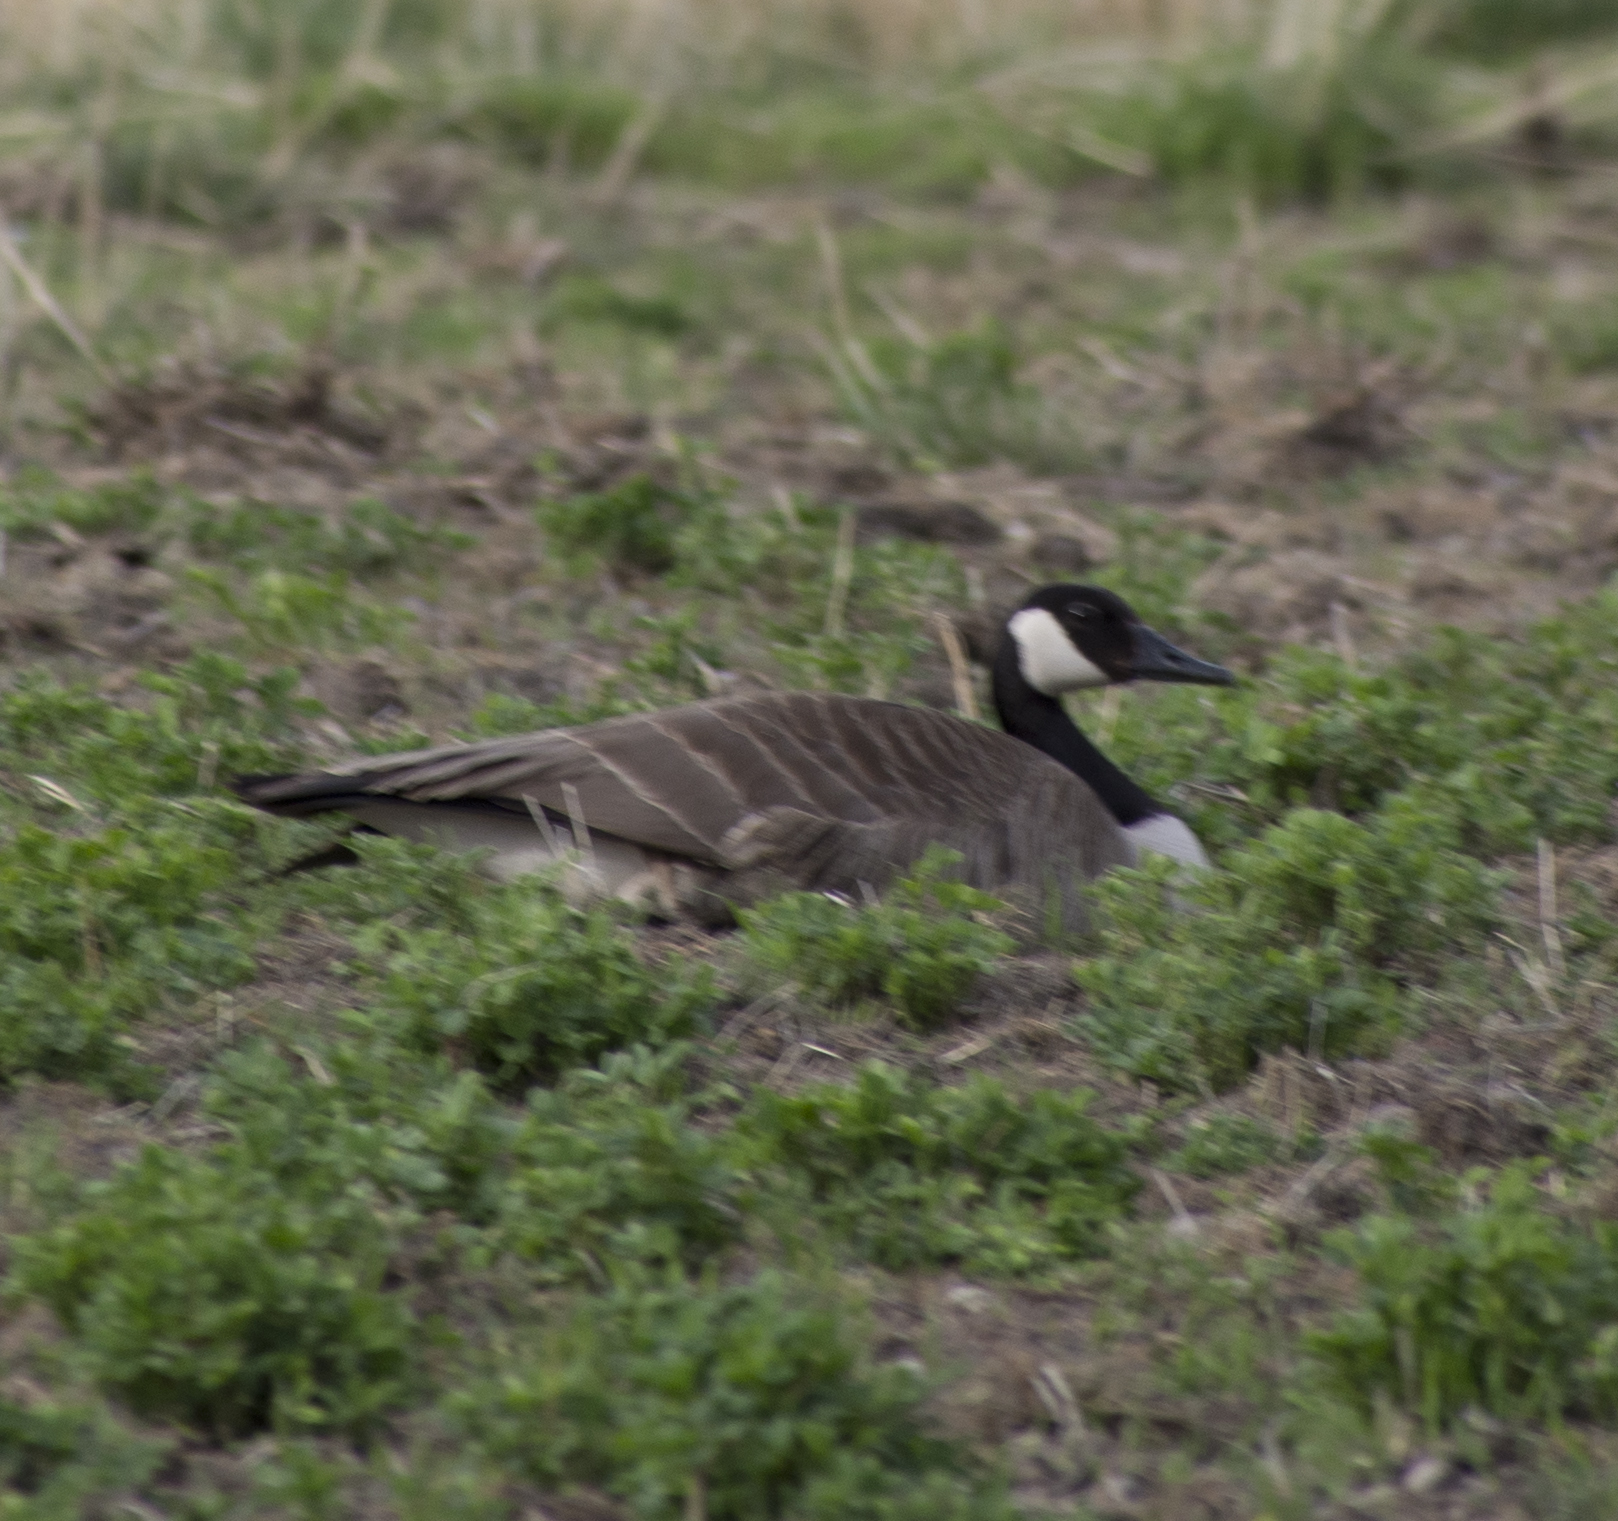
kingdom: Animalia
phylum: Chordata
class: Aves
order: Anseriformes
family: Anatidae
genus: Branta
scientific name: Branta canadensis
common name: Canada goose
